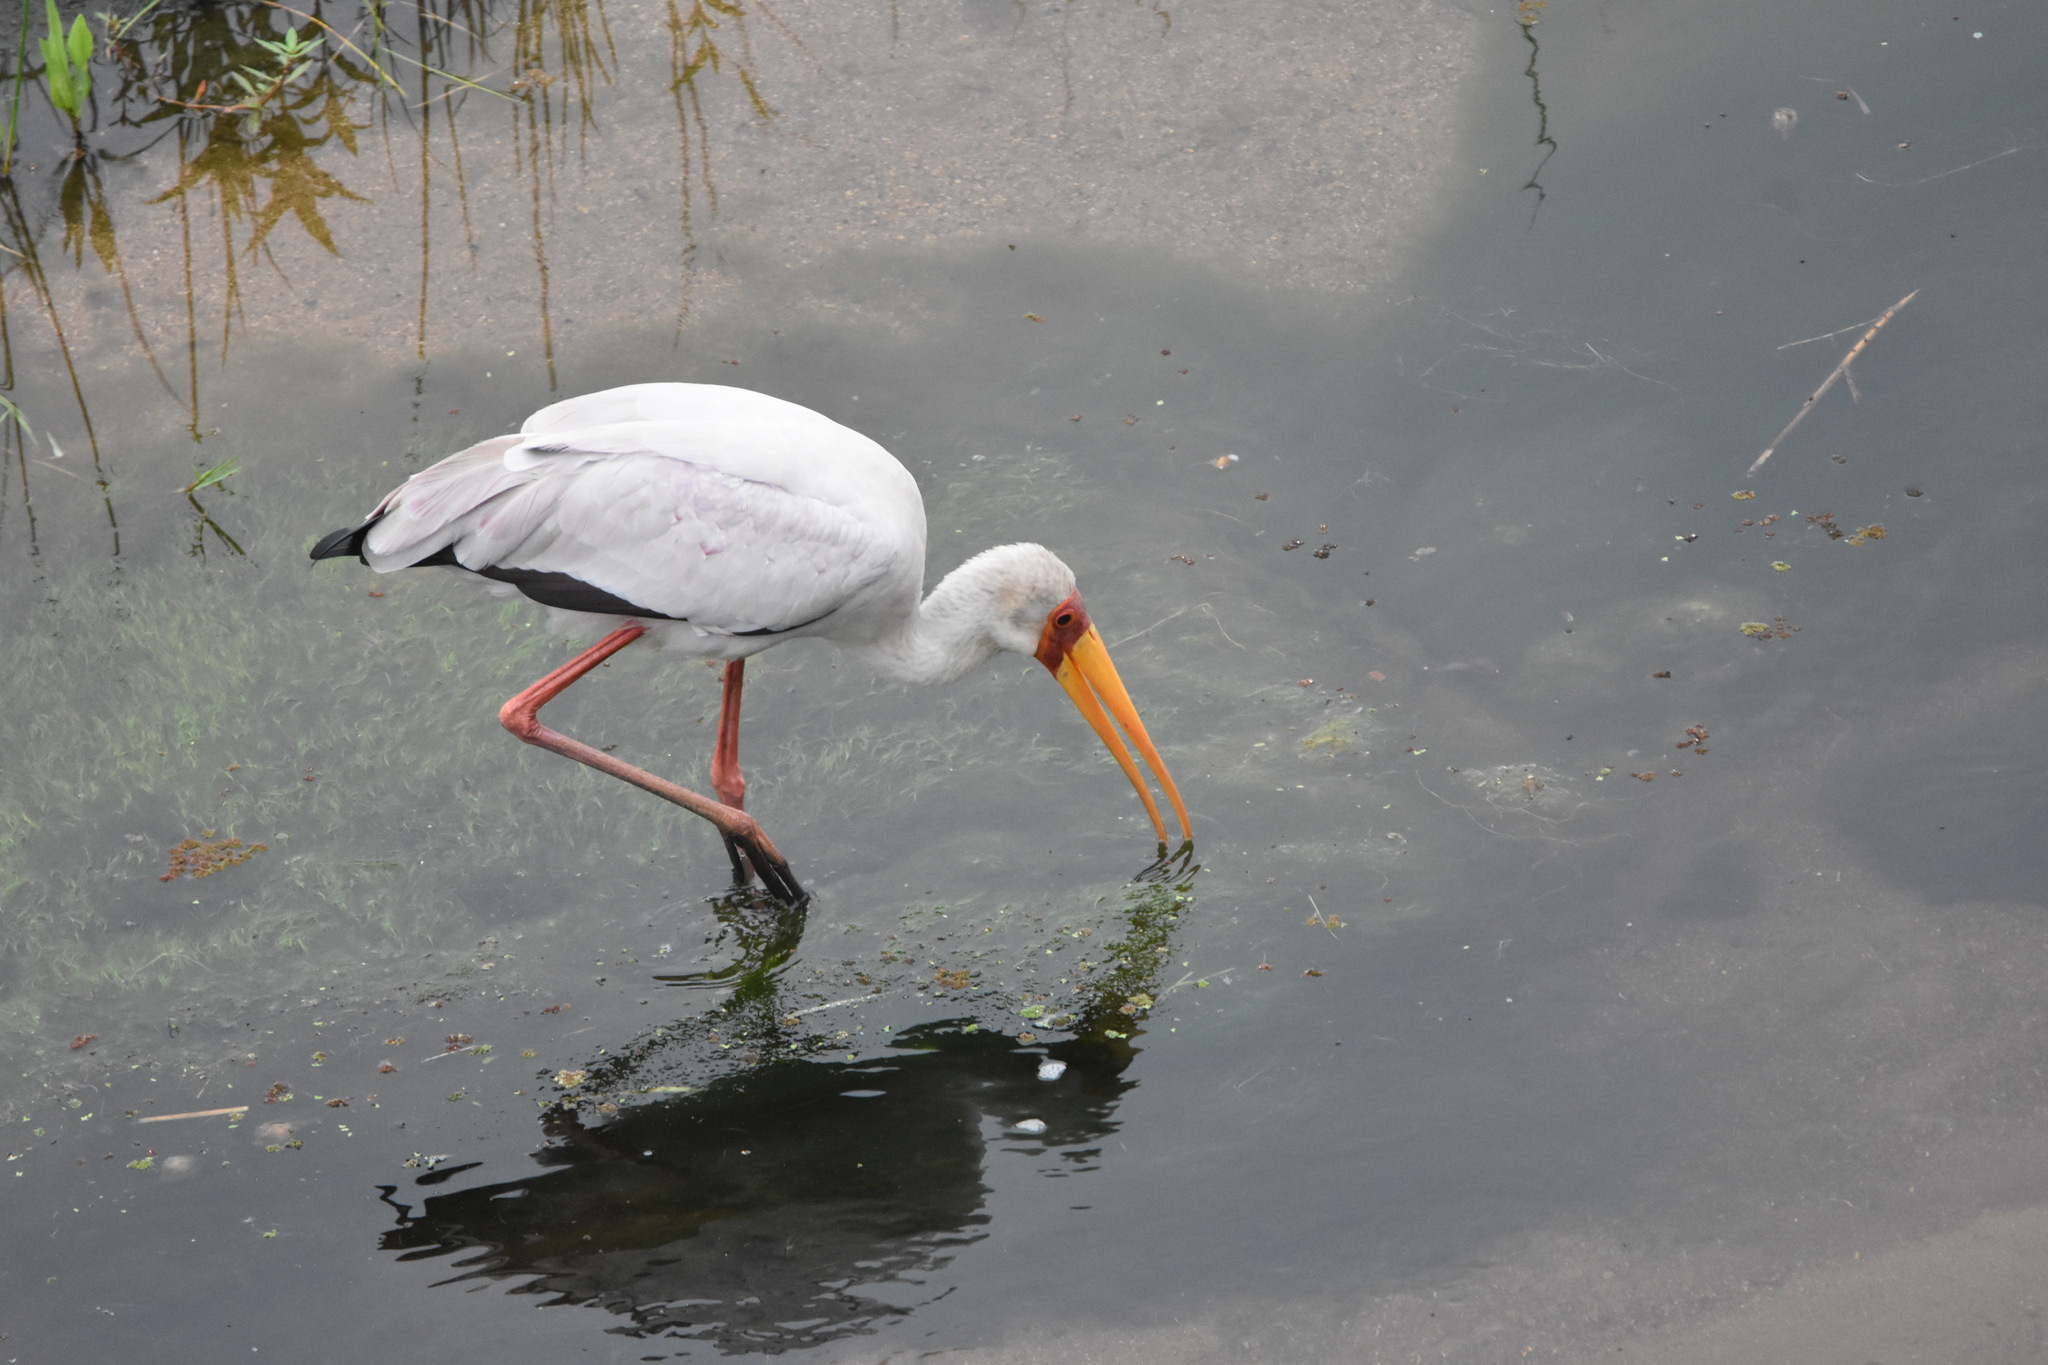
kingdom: Animalia
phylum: Chordata
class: Aves
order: Ciconiiformes
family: Ciconiidae
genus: Mycteria
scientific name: Mycteria ibis
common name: Yellow-billed stork
